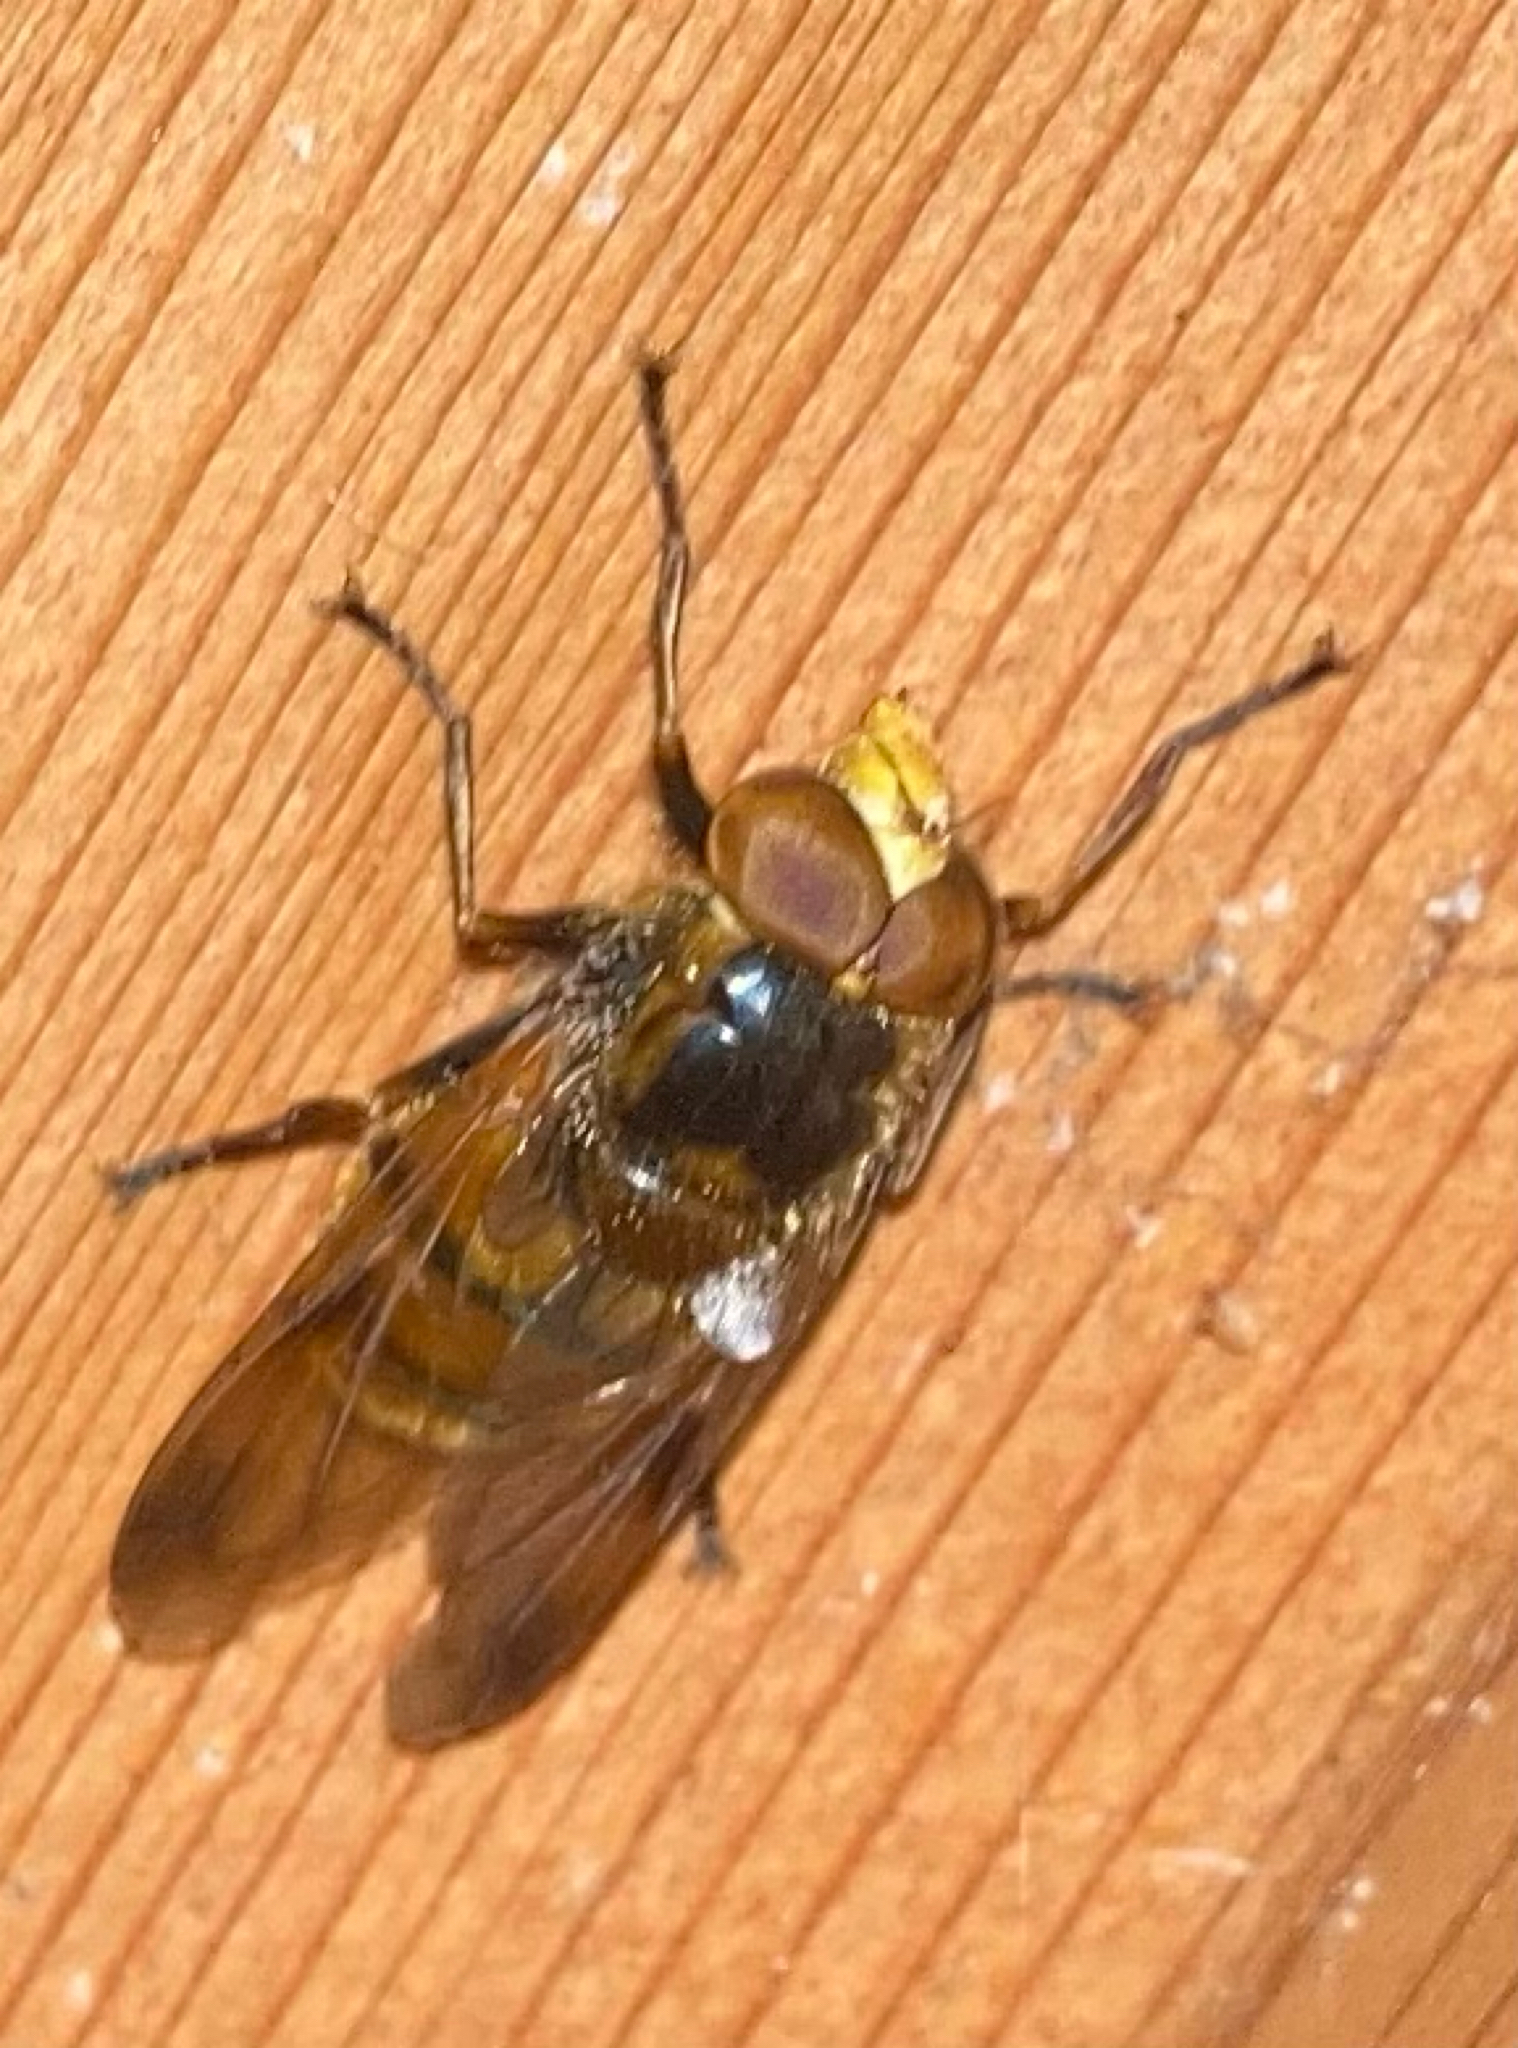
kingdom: Animalia
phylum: Arthropoda
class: Insecta
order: Diptera
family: Syrphidae
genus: Volucella
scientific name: Volucella inanis
